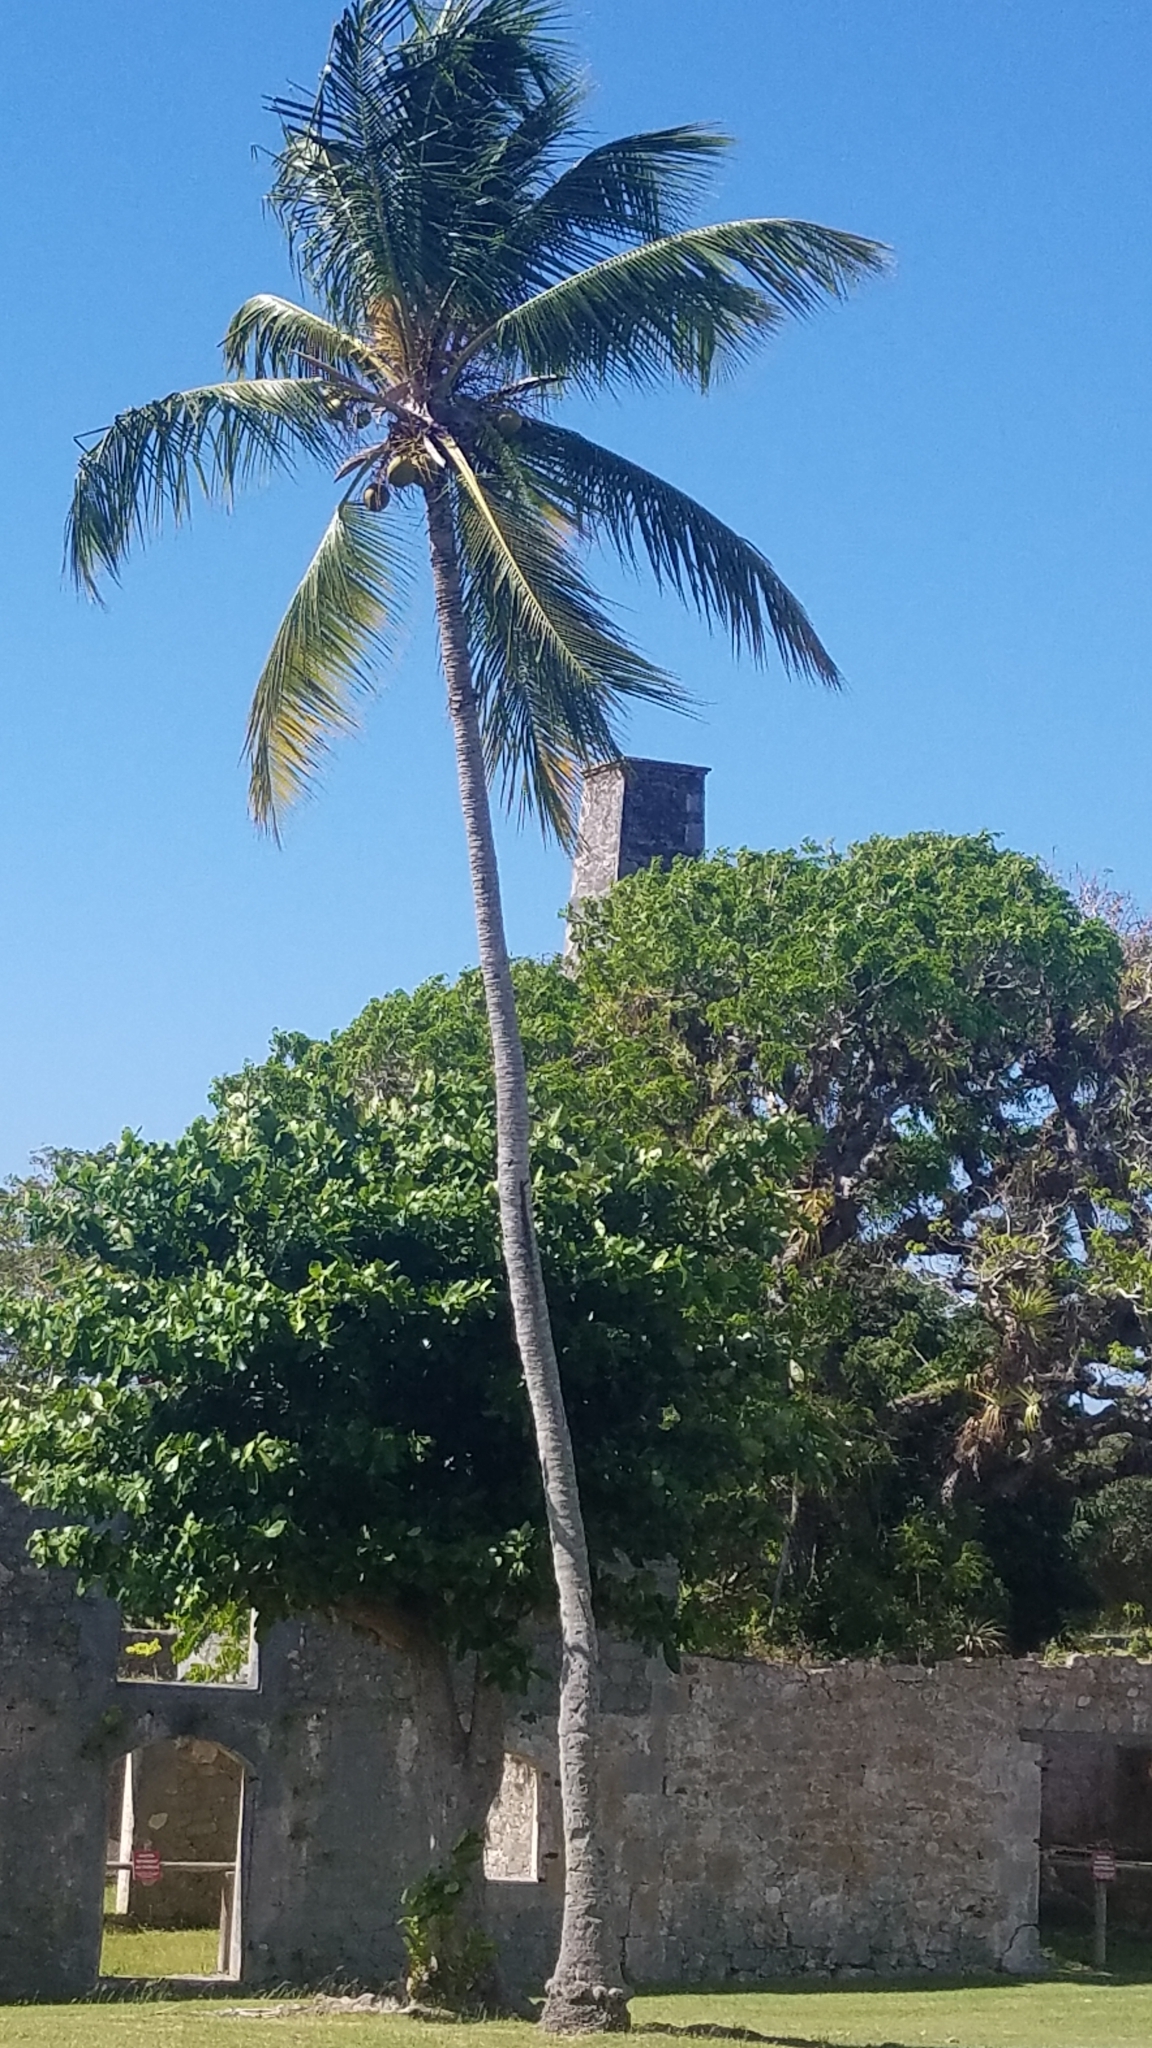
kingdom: Plantae
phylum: Tracheophyta
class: Liliopsida
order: Arecales
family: Arecaceae
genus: Cocos
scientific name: Cocos nucifera
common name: Coconut palm
